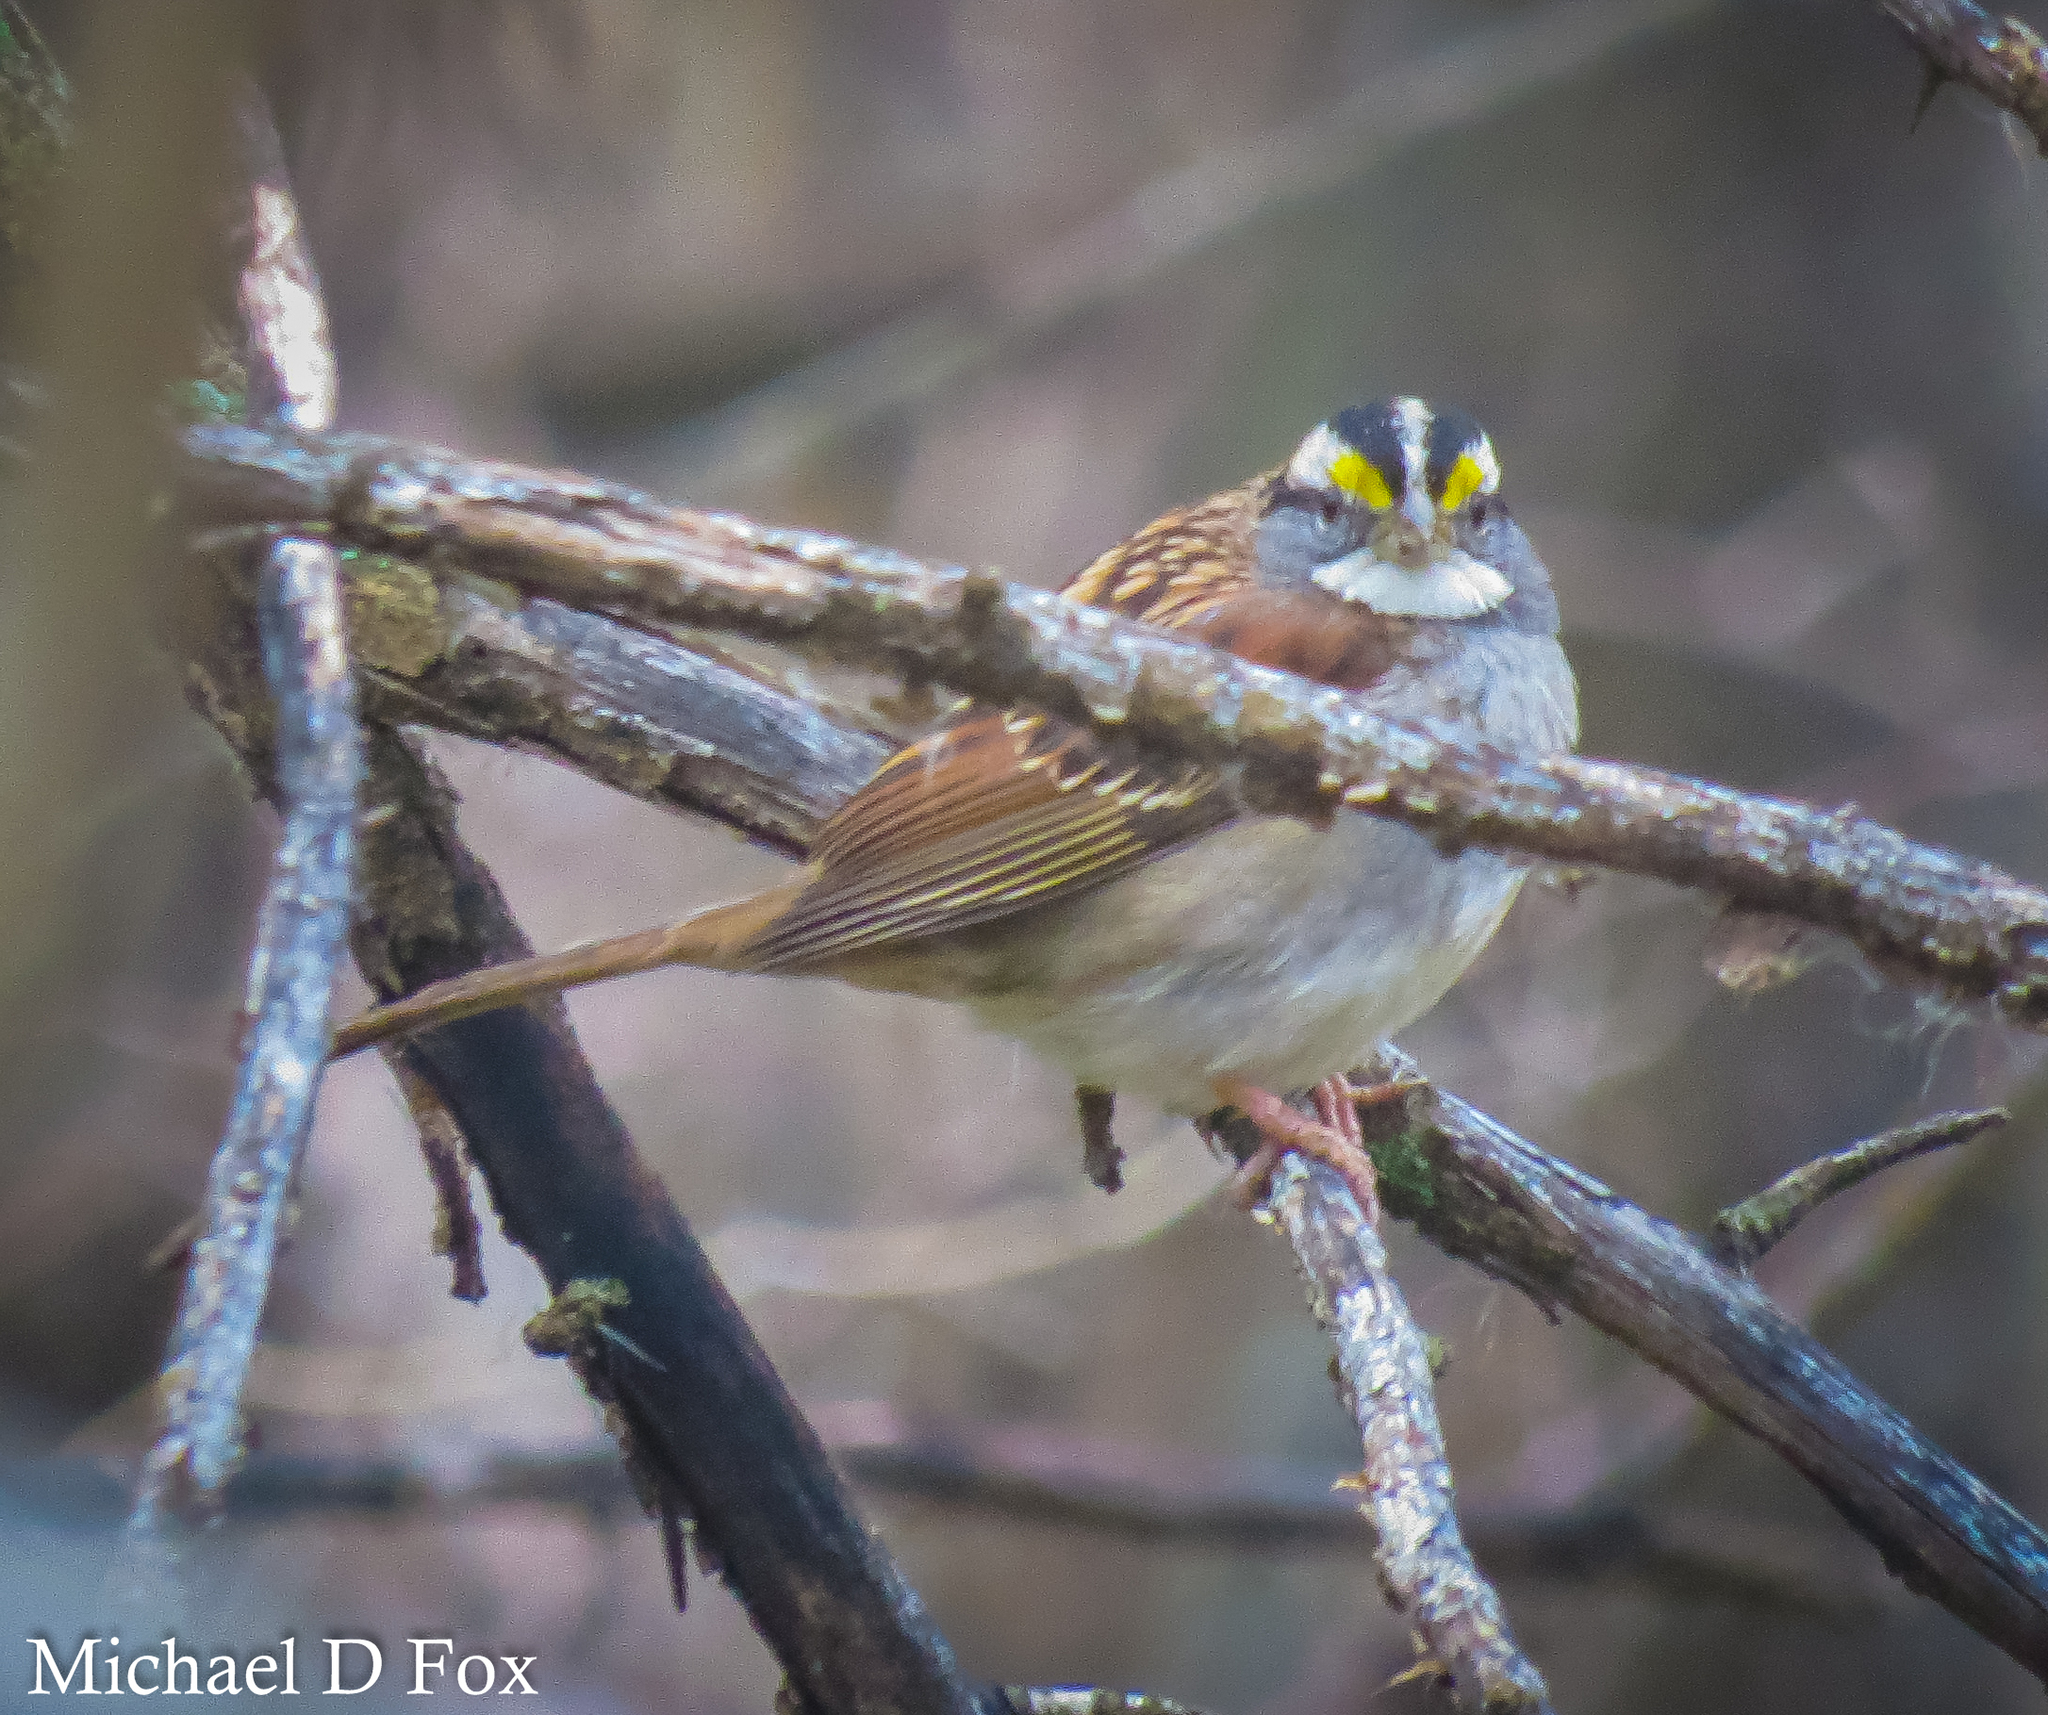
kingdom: Animalia
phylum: Chordata
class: Aves
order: Passeriformes
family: Passerellidae
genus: Zonotrichia
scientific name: Zonotrichia albicollis
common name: White-throated sparrow
